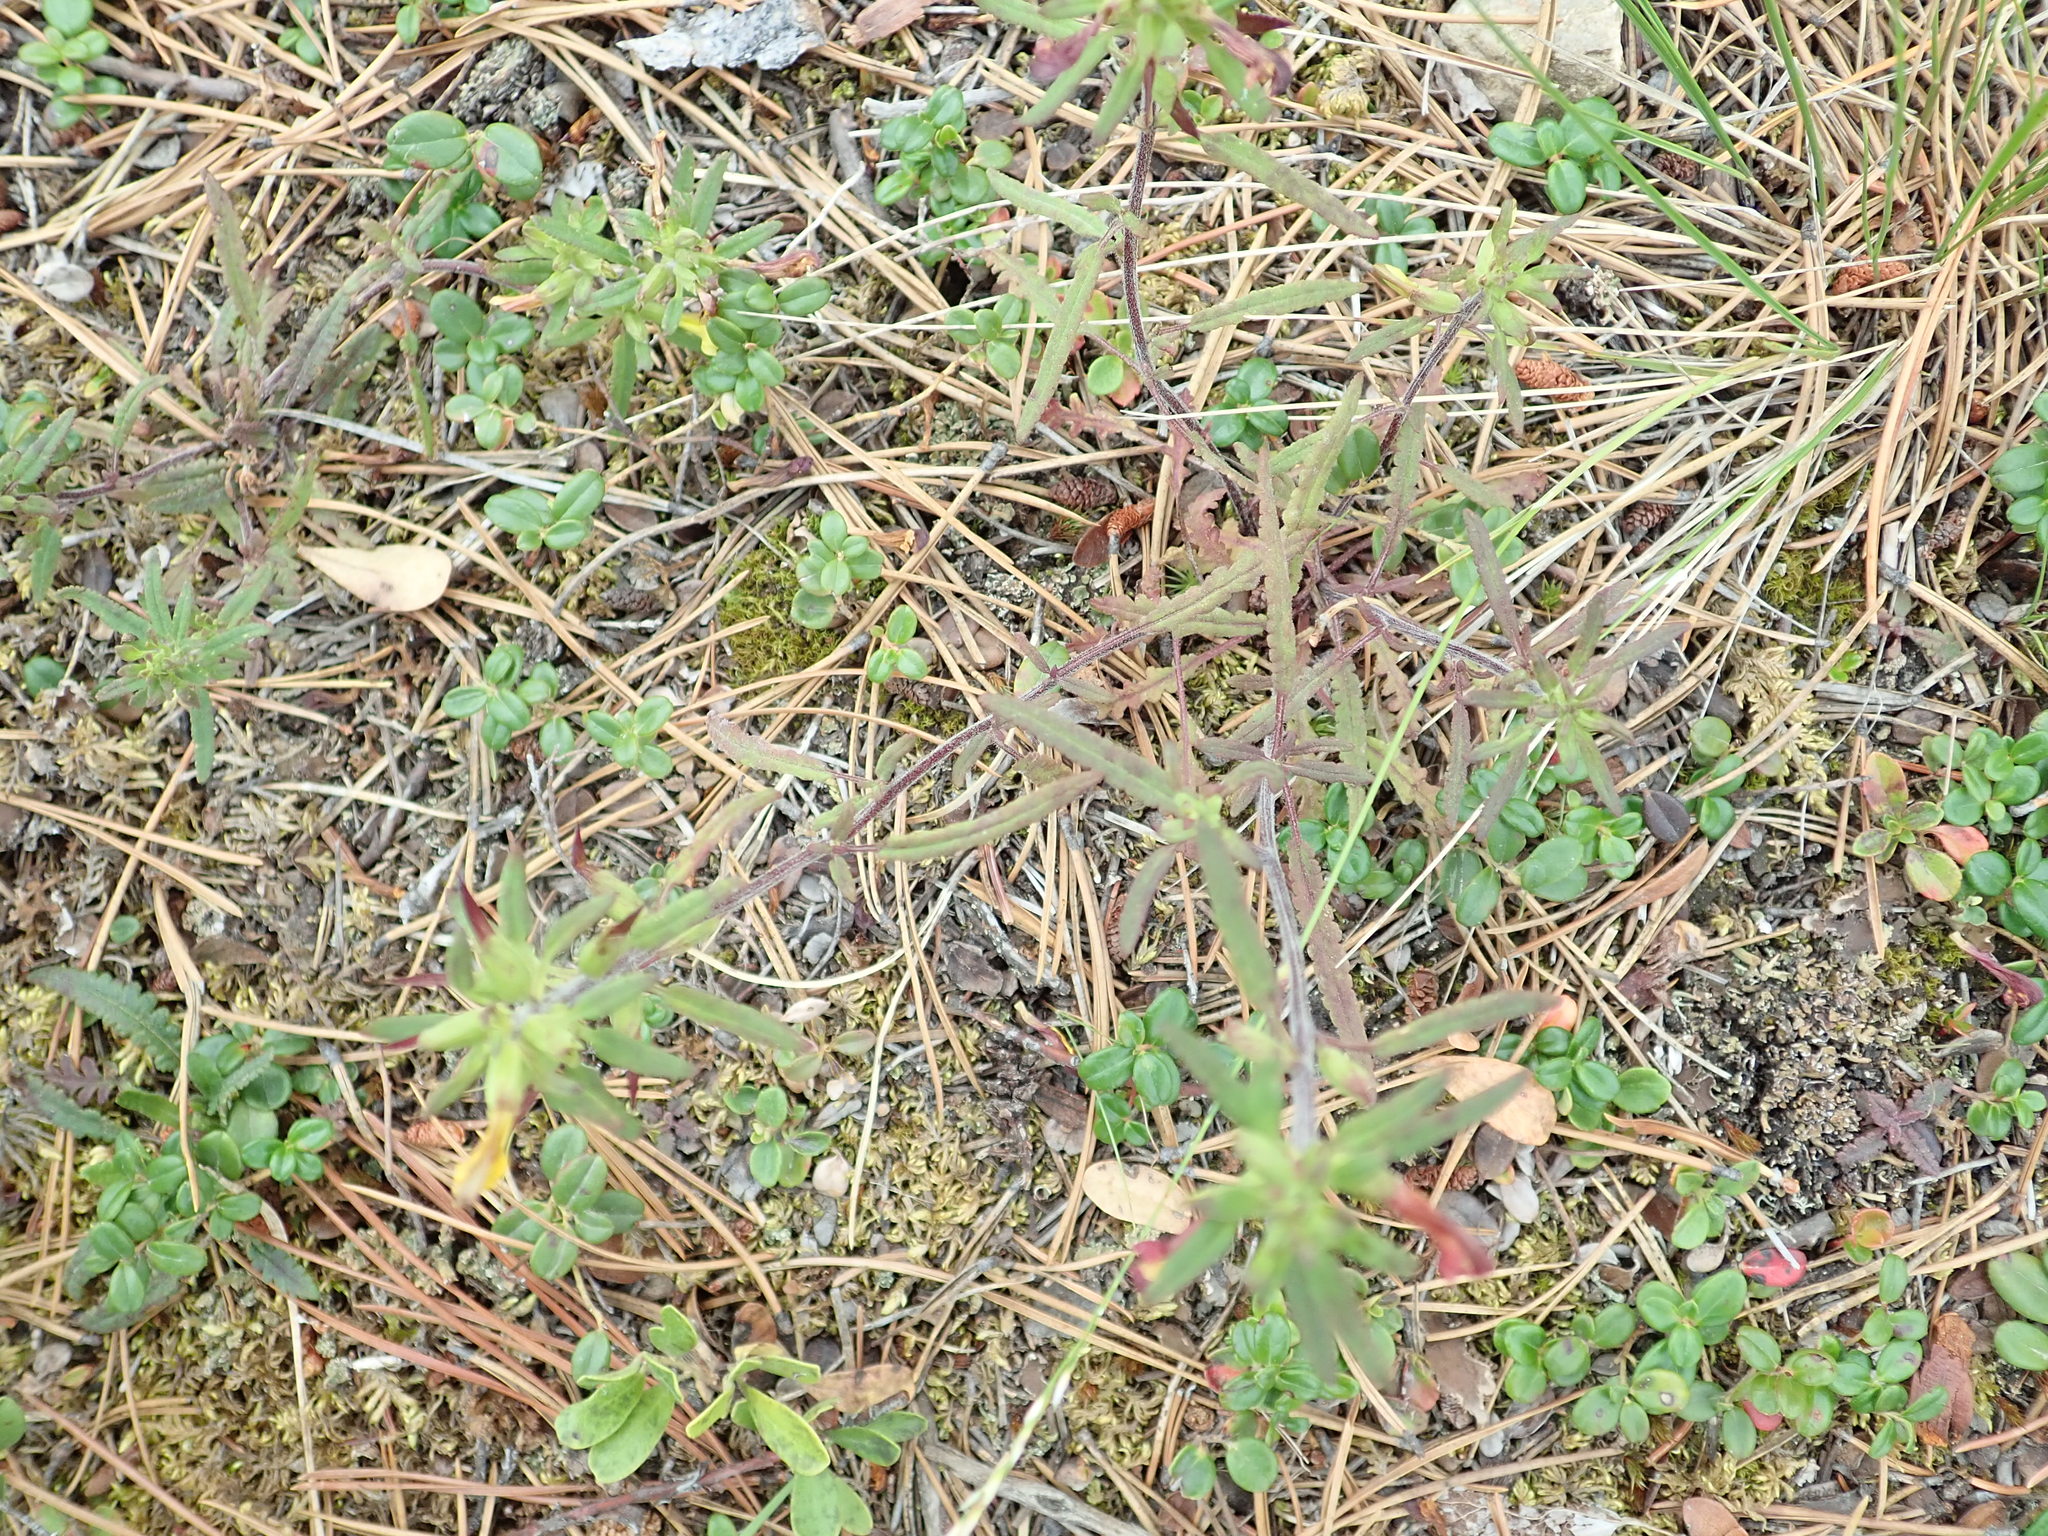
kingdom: Plantae
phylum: Tracheophyta
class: Magnoliopsida
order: Lamiales
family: Orobanchaceae
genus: Pedicularis
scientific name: Pedicularis labradorica
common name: Labrador lousewort
